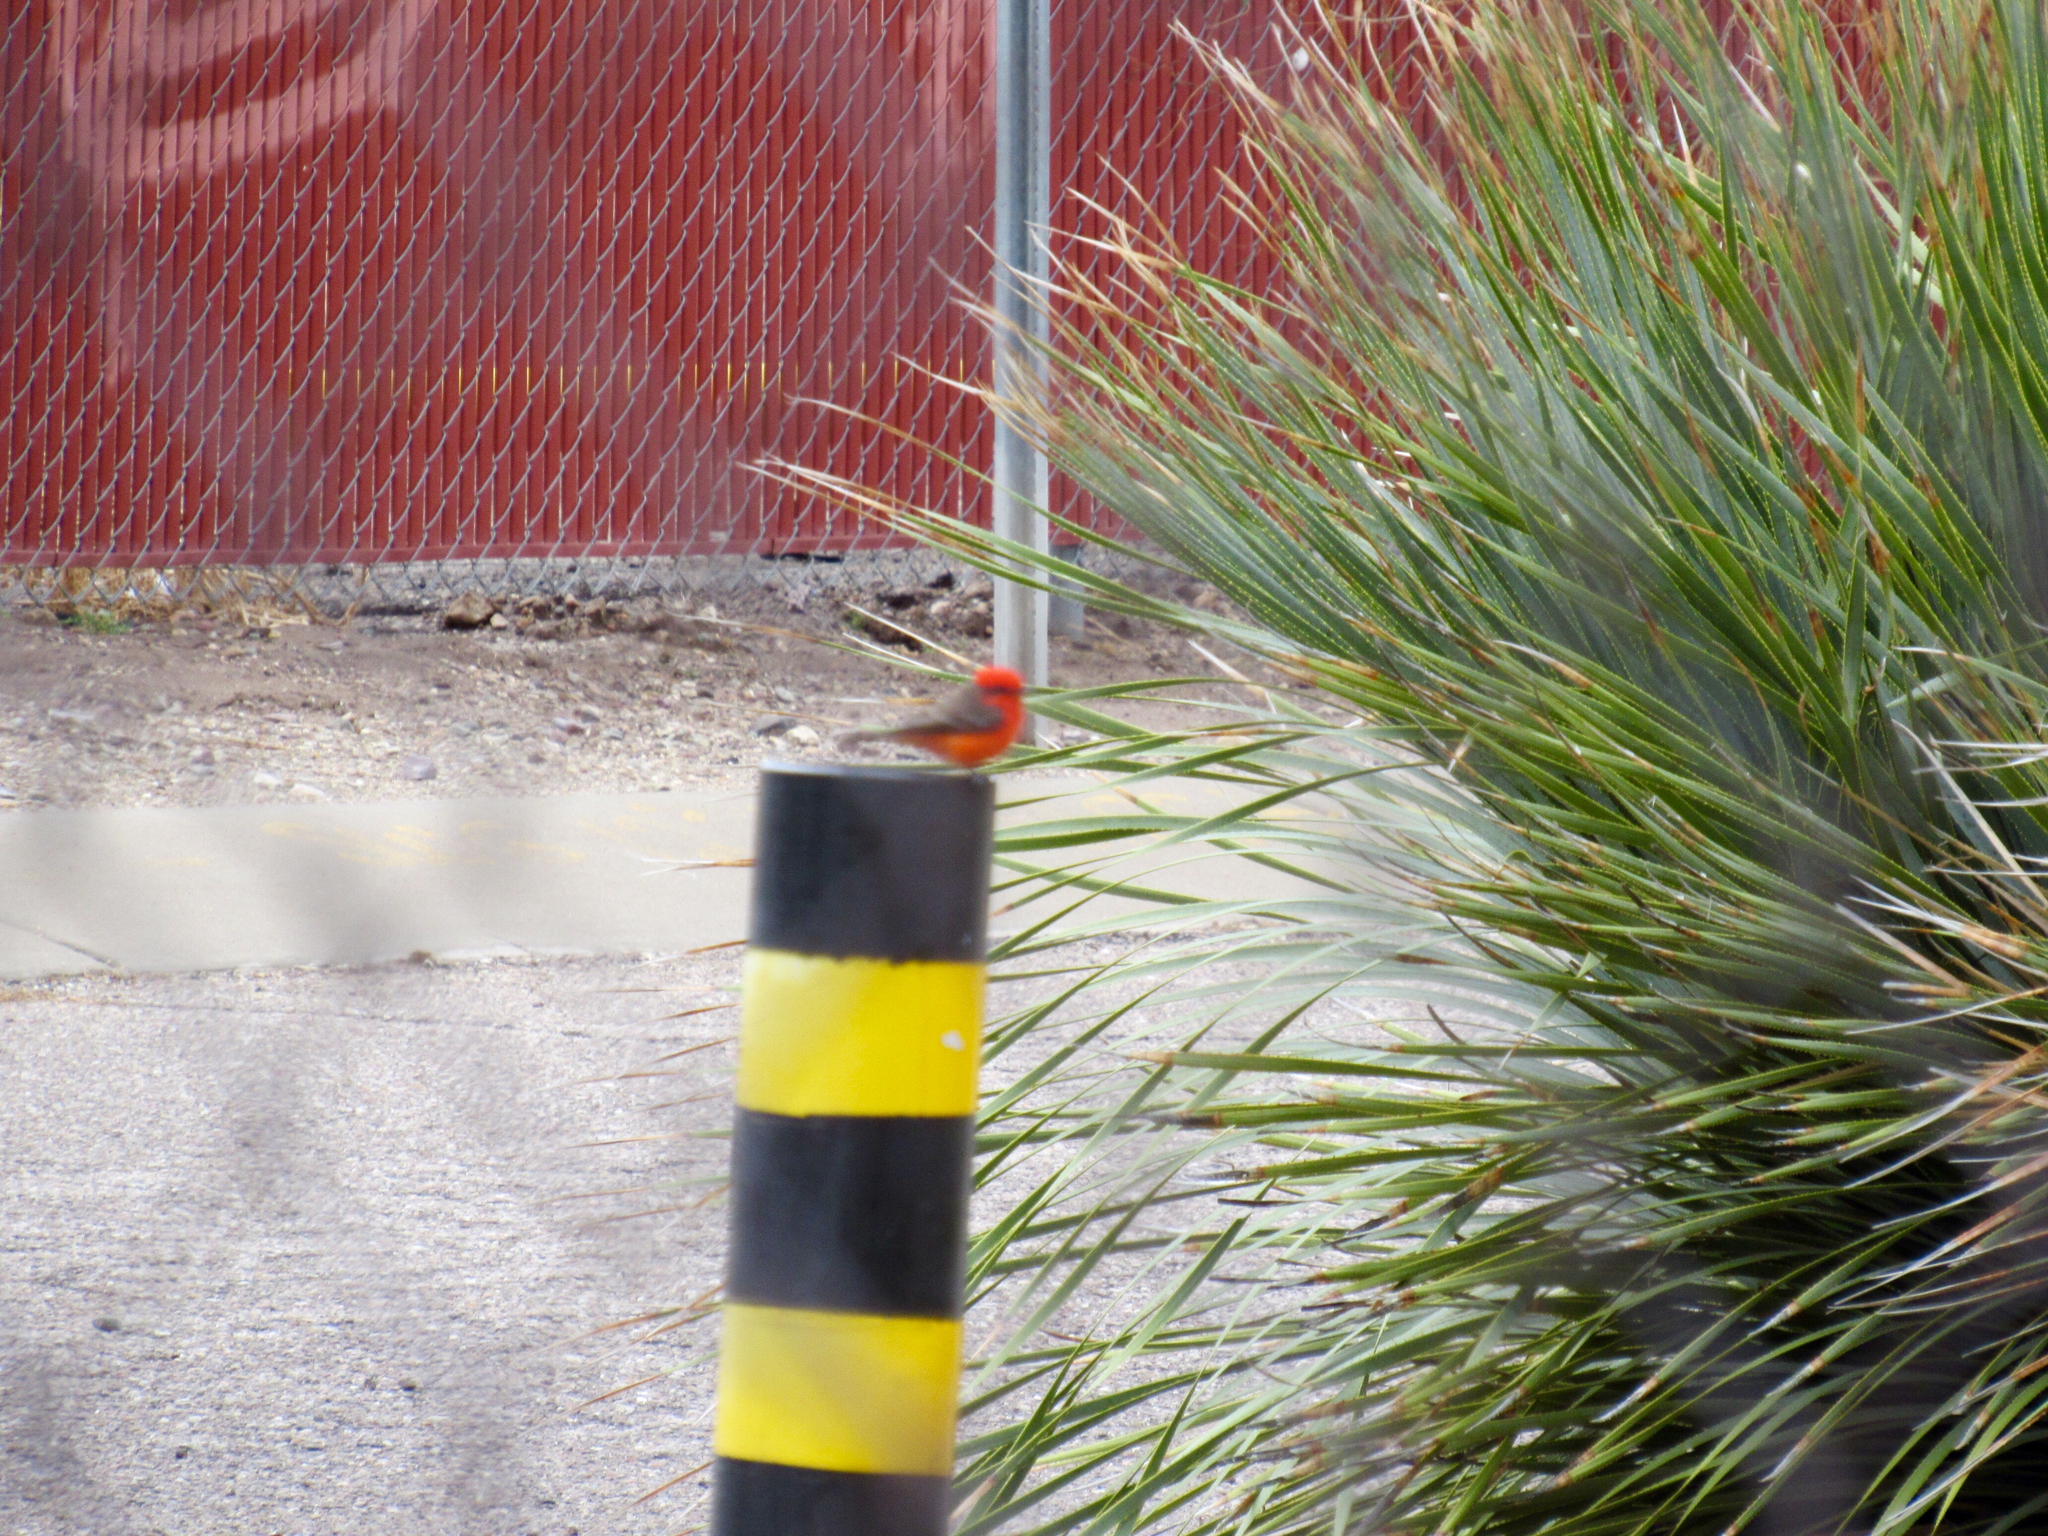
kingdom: Animalia
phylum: Chordata
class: Aves
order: Passeriformes
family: Tyrannidae
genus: Pyrocephalus
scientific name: Pyrocephalus rubinus
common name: Vermilion flycatcher
